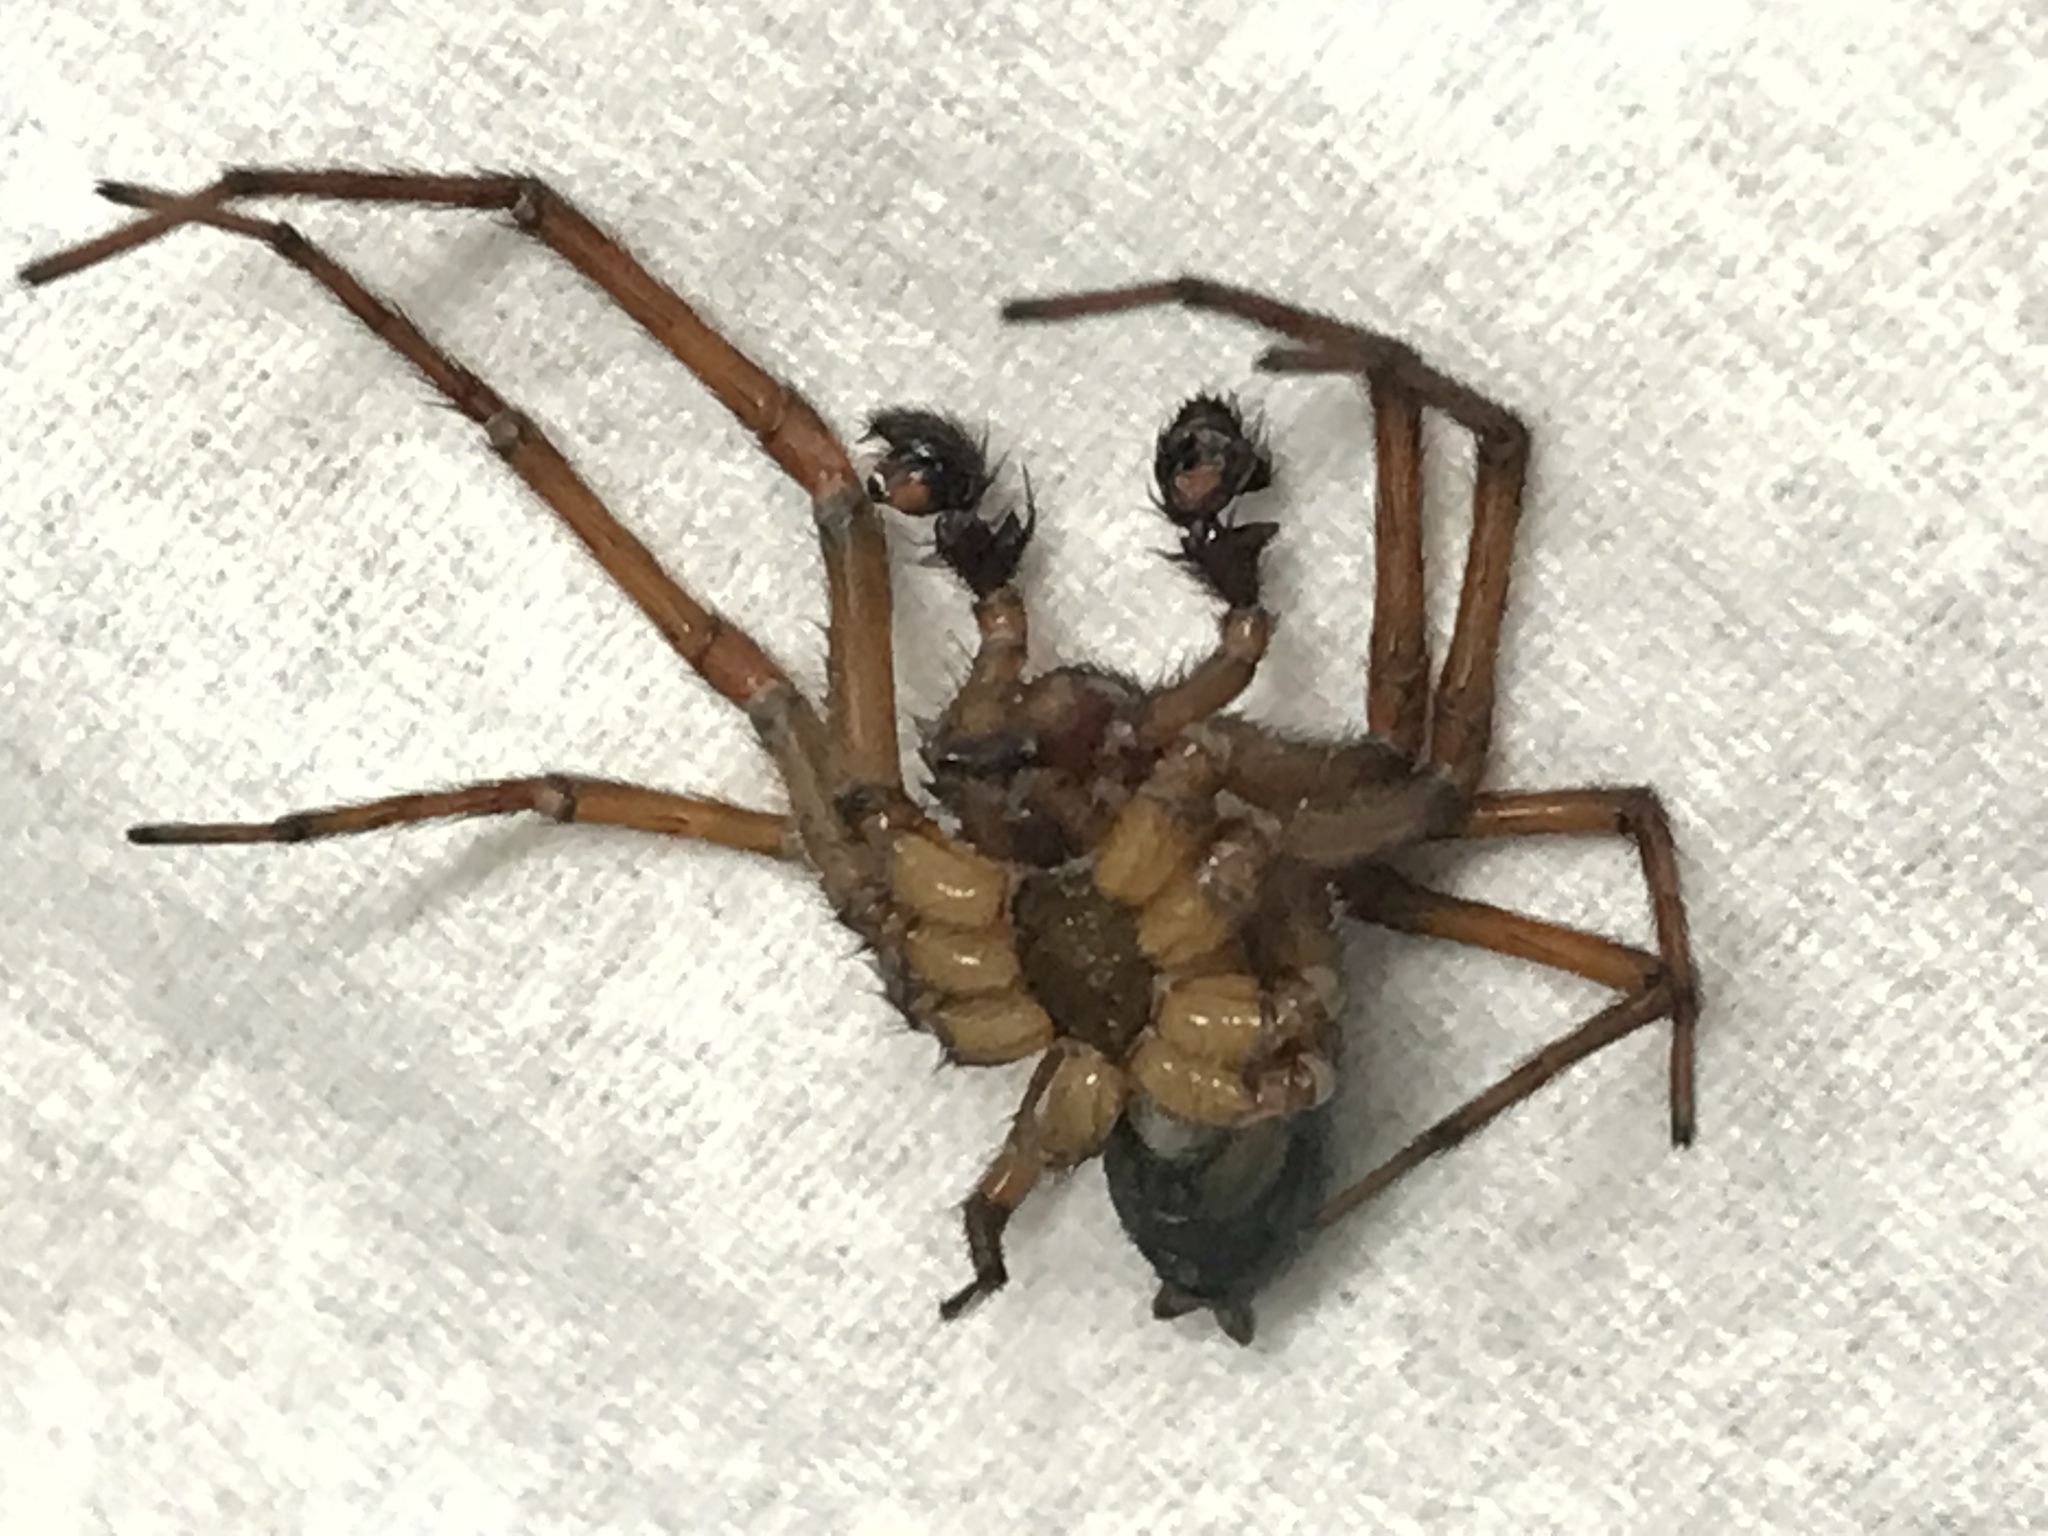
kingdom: Animalia
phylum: Arthropoda
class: Arachnida
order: Araneae
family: Amaurobiidae
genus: Callobius
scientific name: Callobius severus
